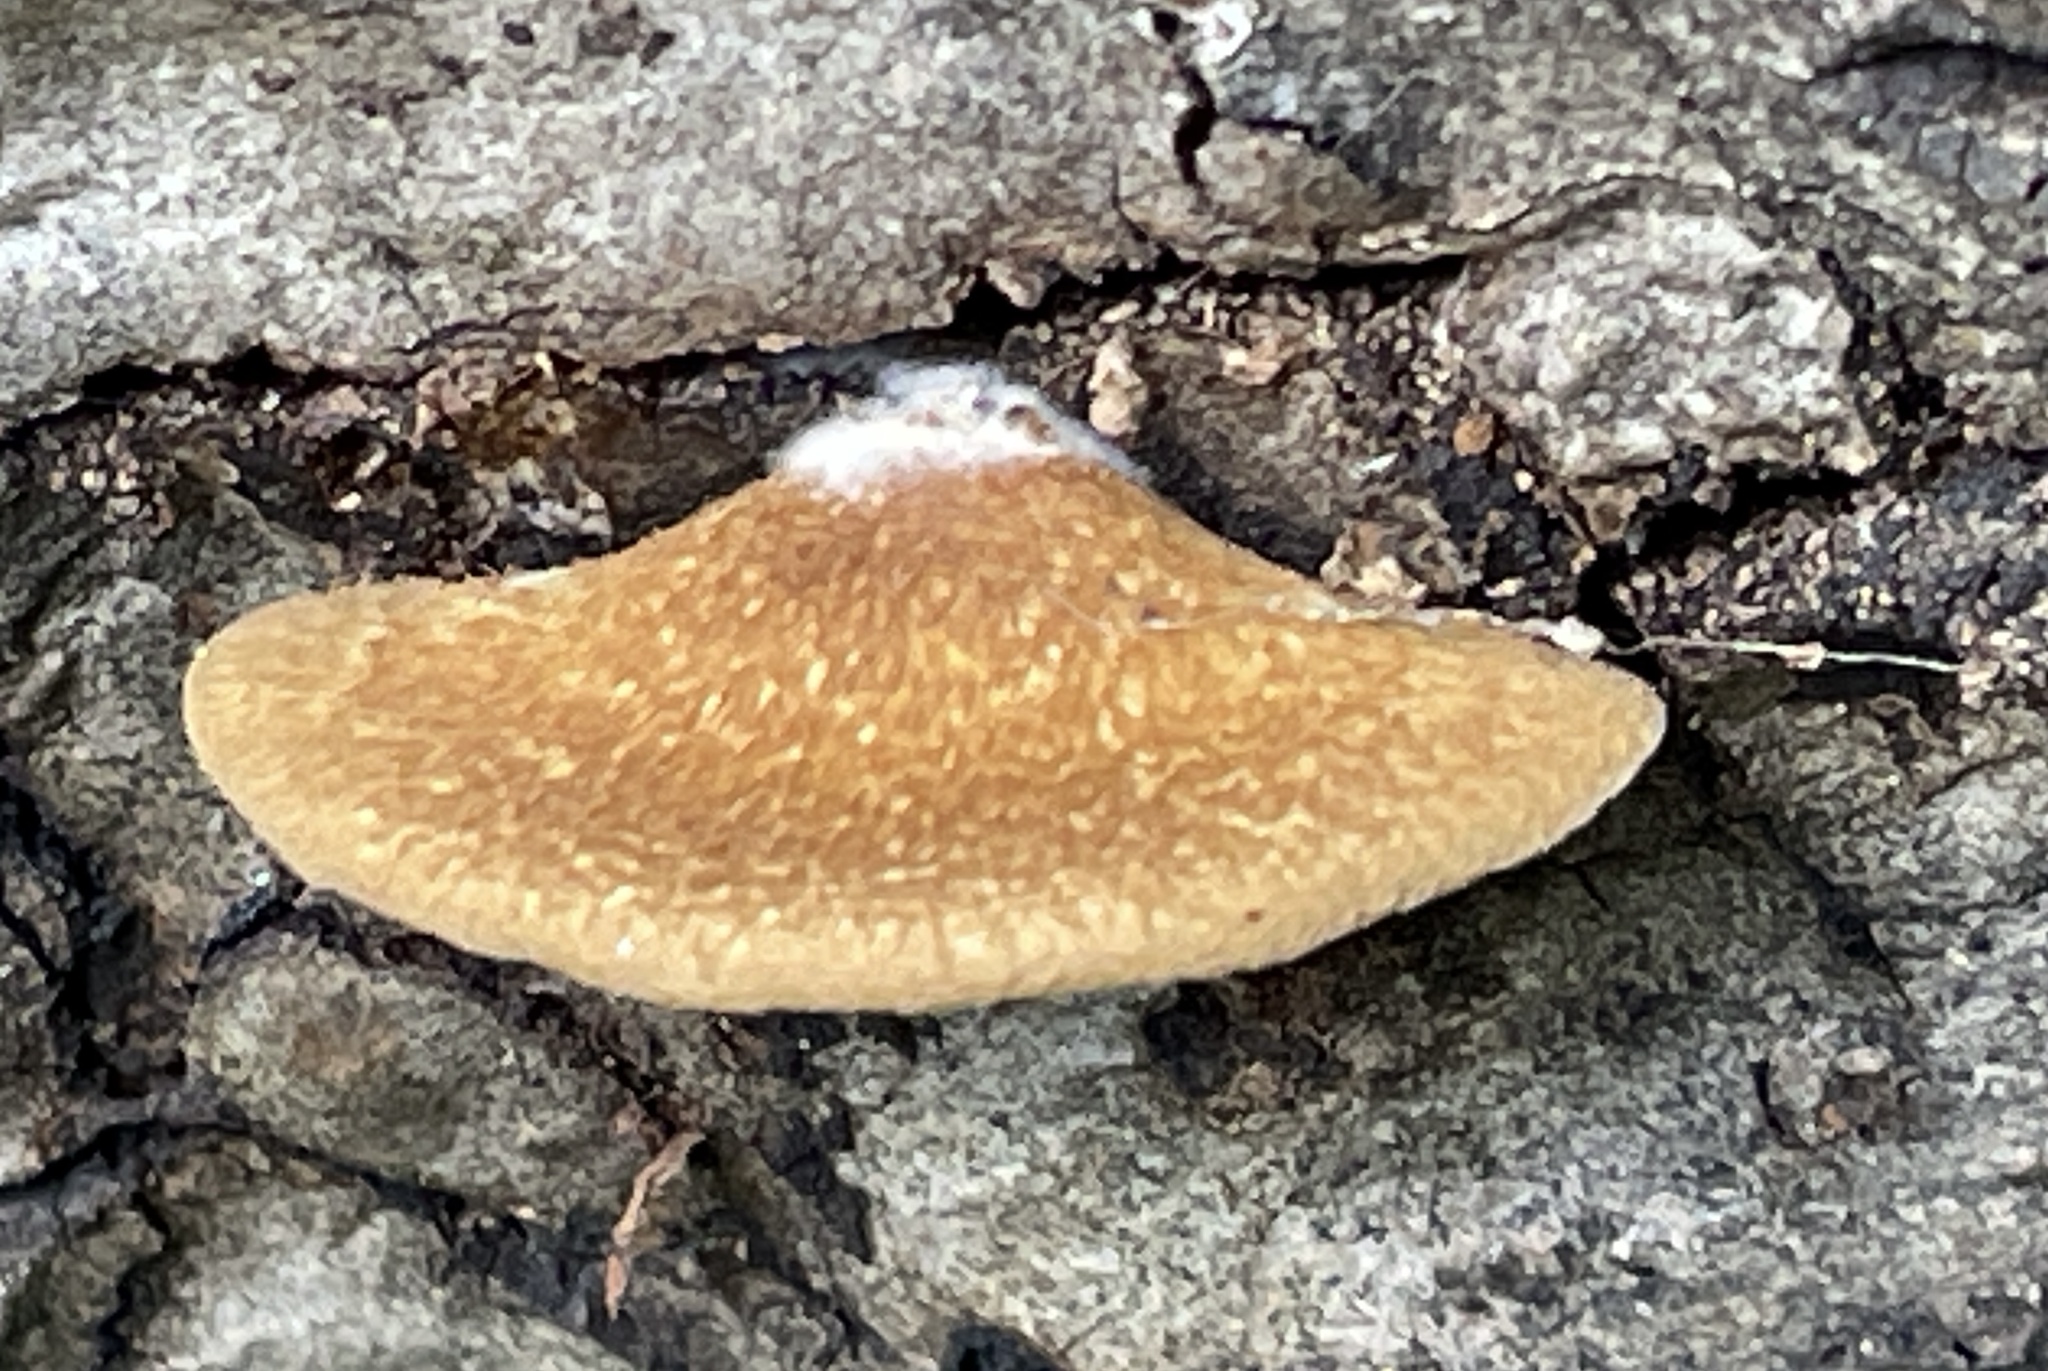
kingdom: Fungi
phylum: Basidiomycota
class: Agaricomycetes
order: Agaricales
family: Crepidotaceae
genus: Crepidotus
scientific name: Crepidotus calolepis
